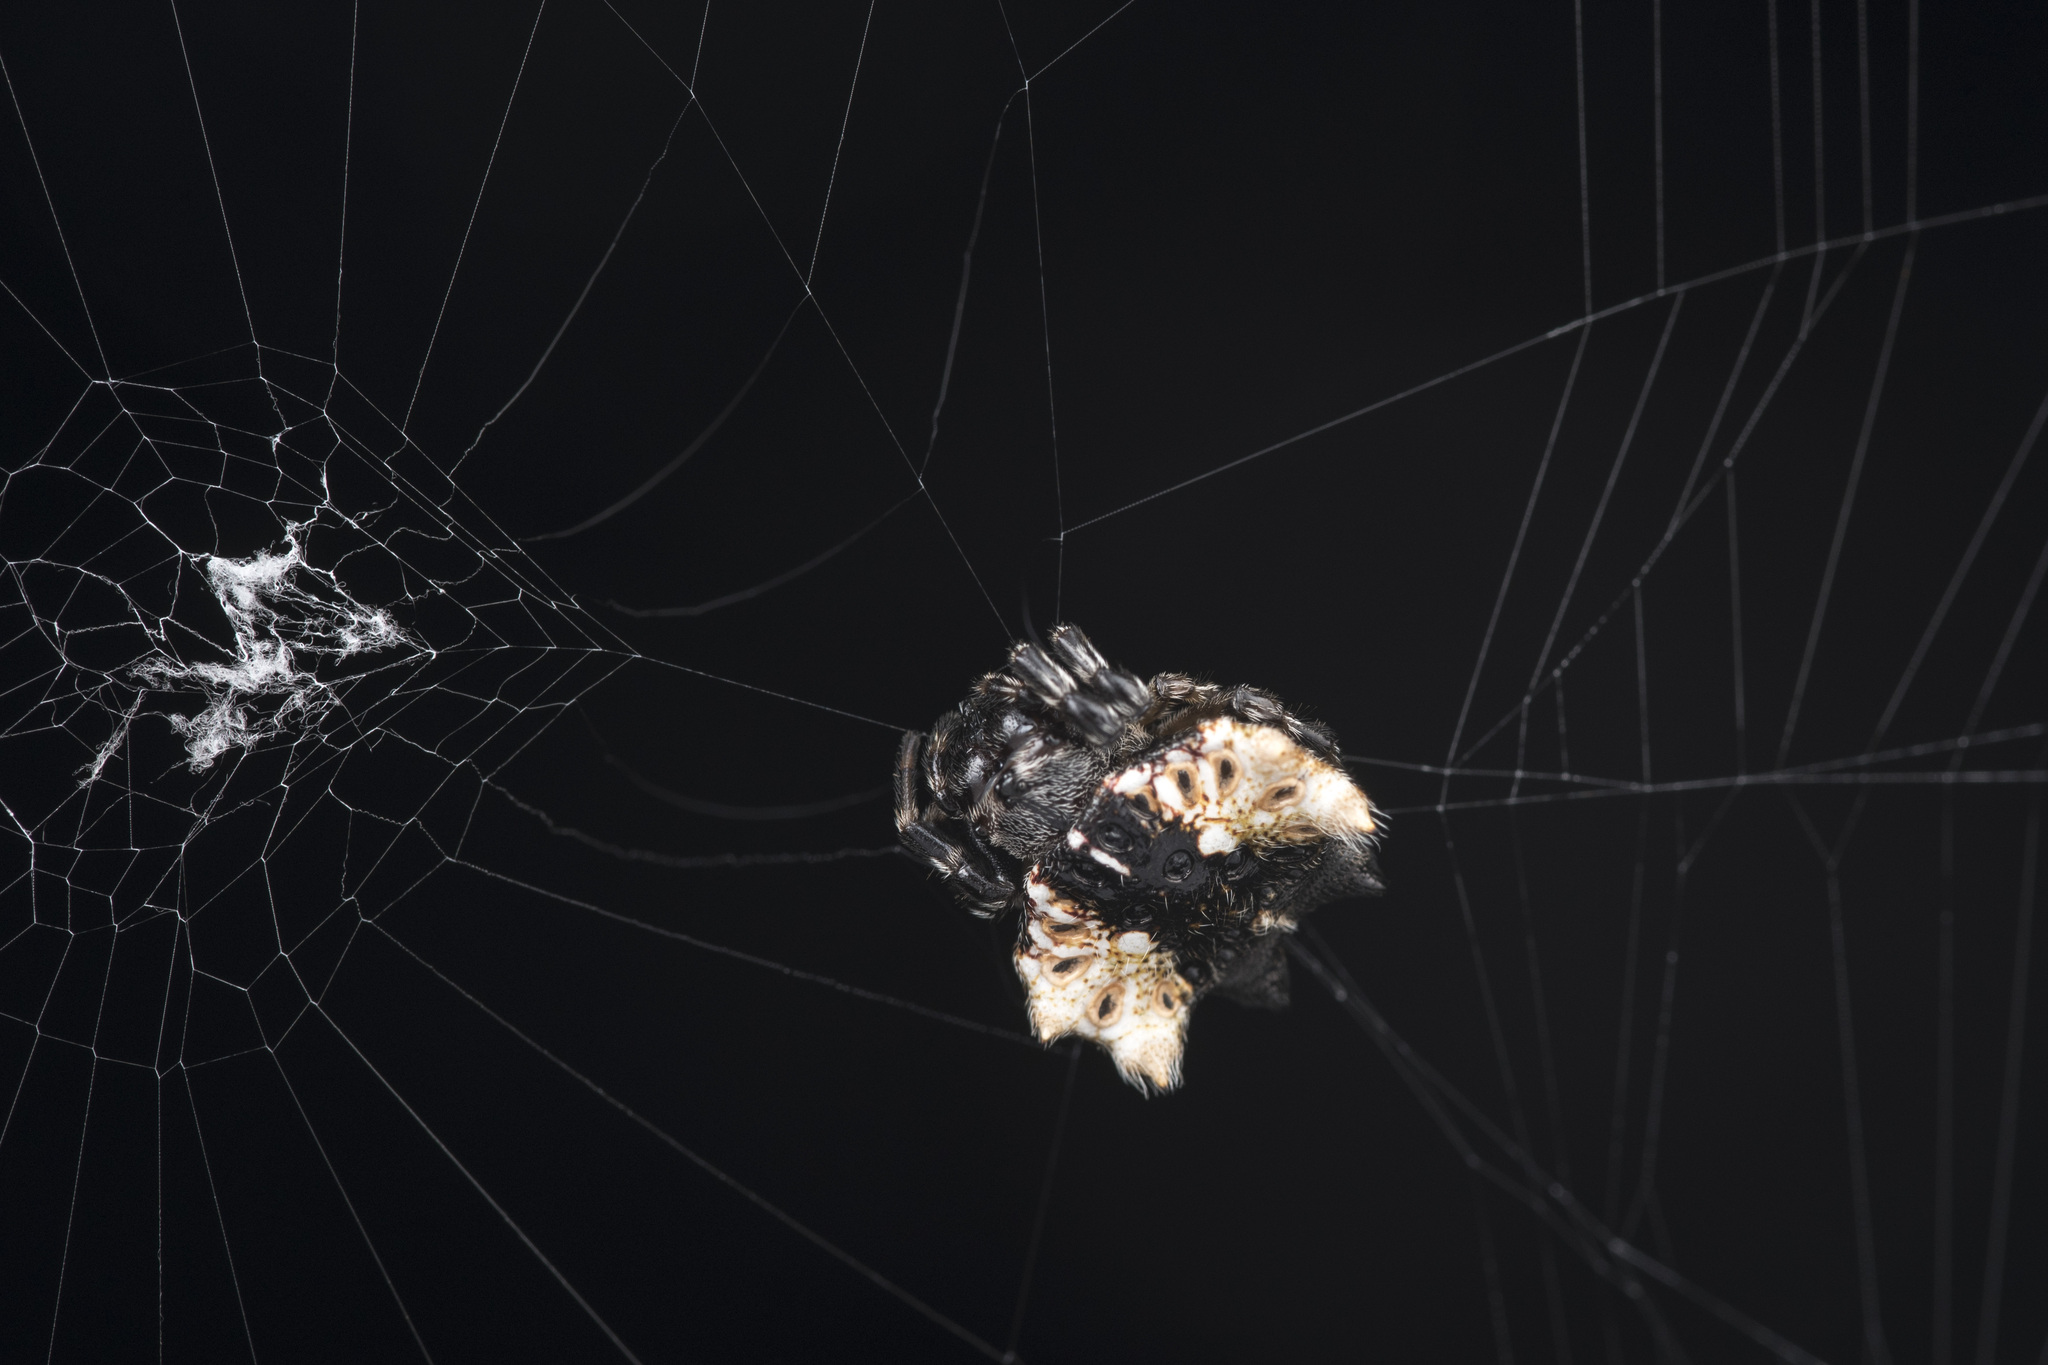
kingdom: Animalia
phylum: Arthropoda
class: Arachnida
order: Araneae
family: Araneidae
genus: Thelacantha
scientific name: Thelacantha brevispina
